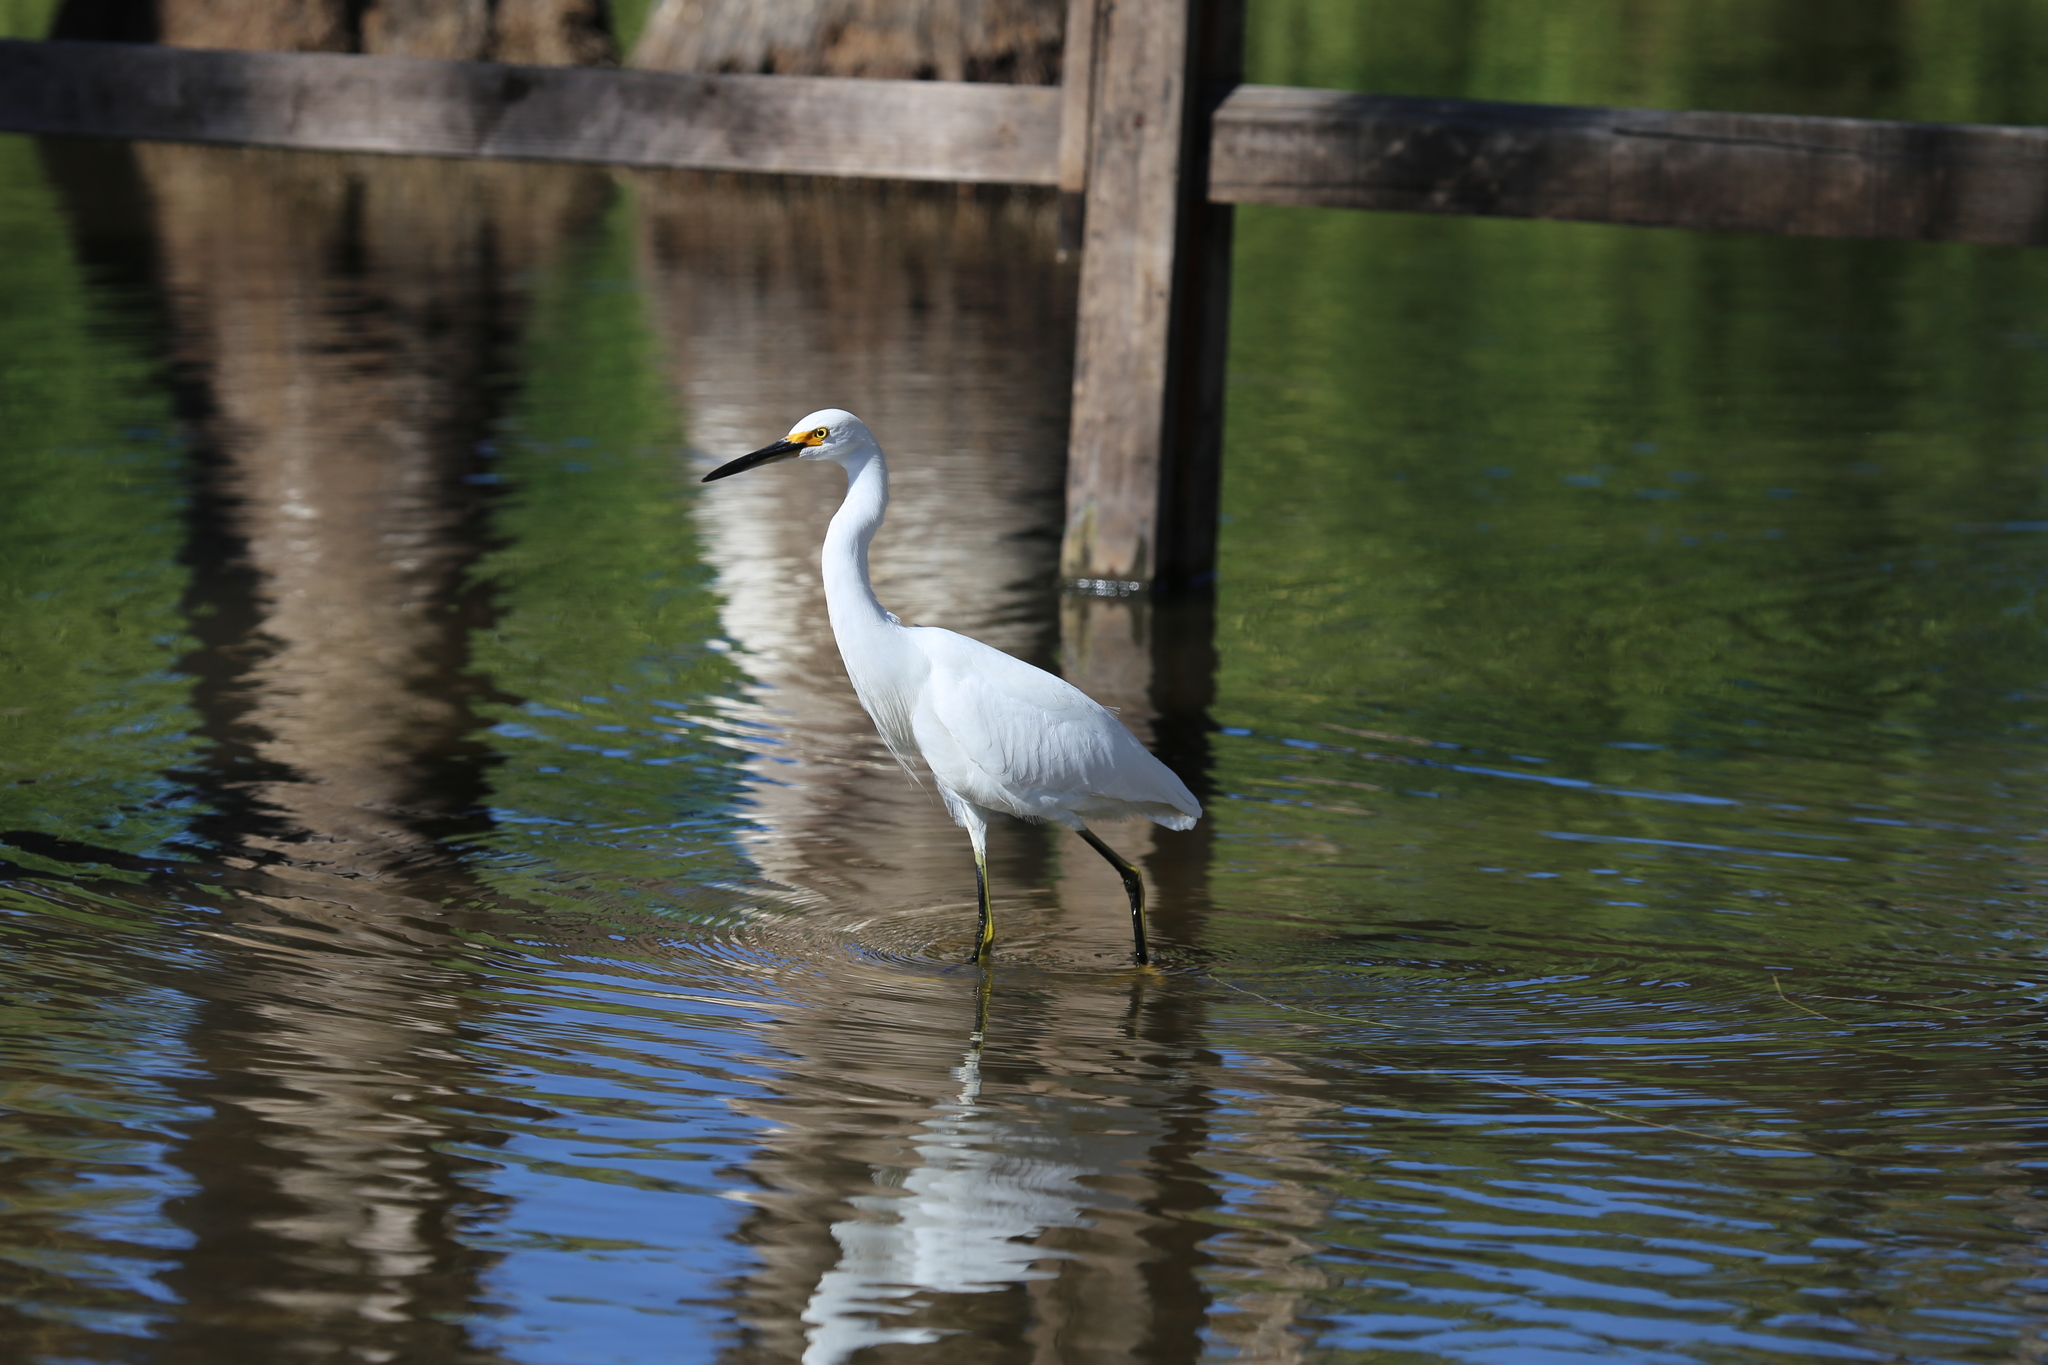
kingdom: Animalia
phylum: Chordata
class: Aves
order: Pelecaniformes
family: Ardeidae
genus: Egretta
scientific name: Egretta thula
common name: Snowy egret
